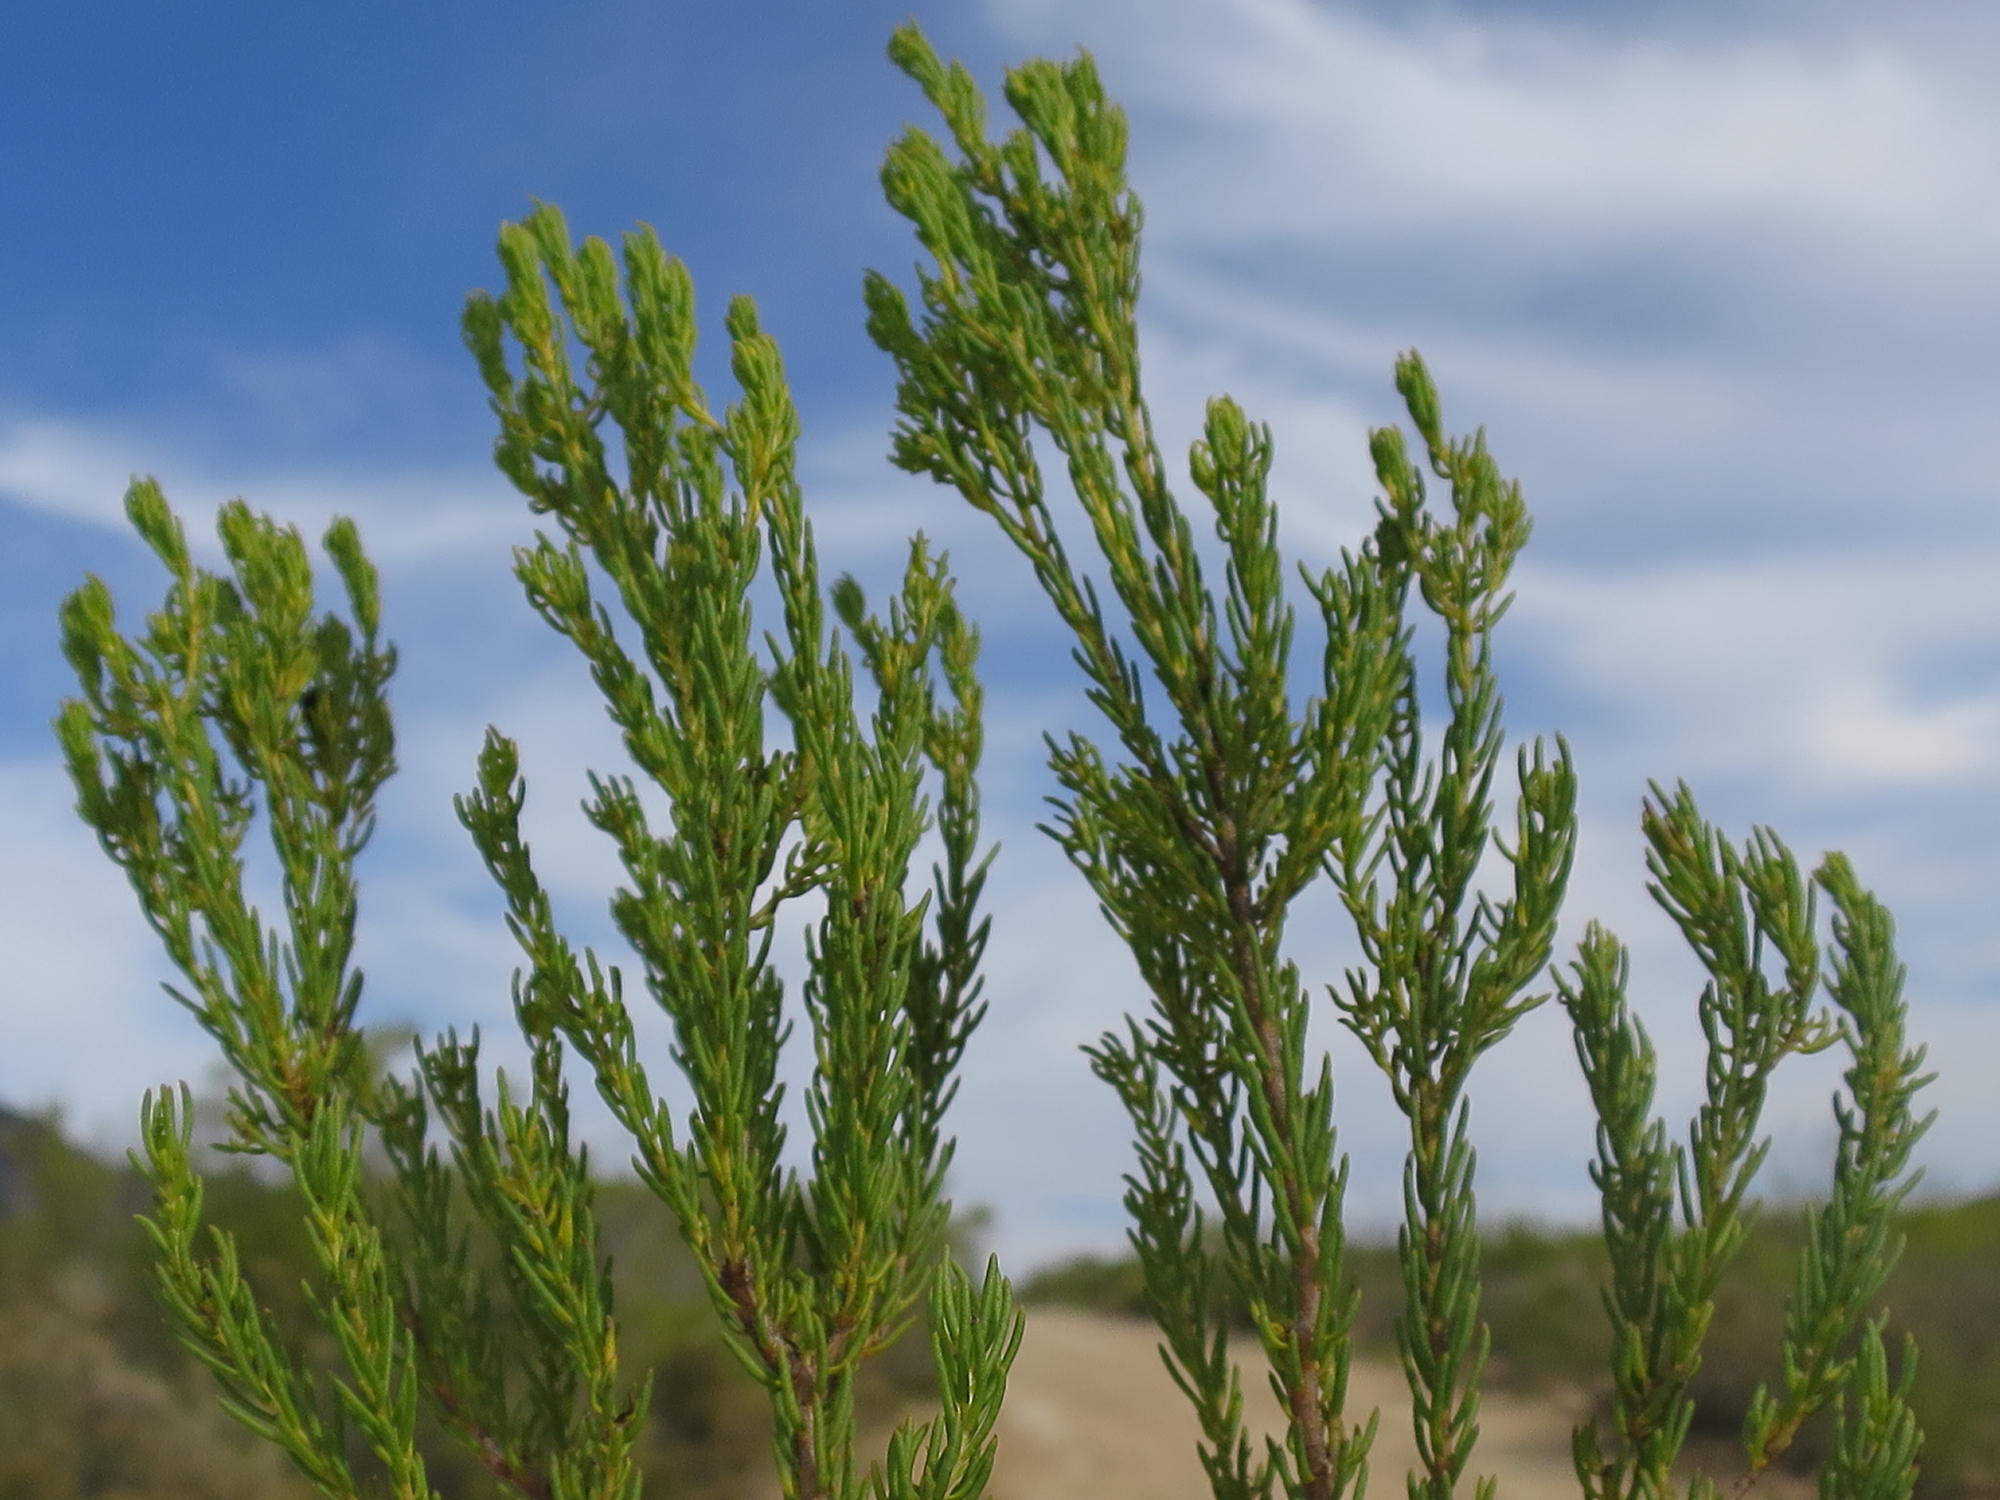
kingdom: Plantae
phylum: Tracheophyta
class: Magnoliopsida
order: Proteales
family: Proteaceae
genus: Leucadendron
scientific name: Leucadendron teretifolium
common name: Needle-leaf conebush
